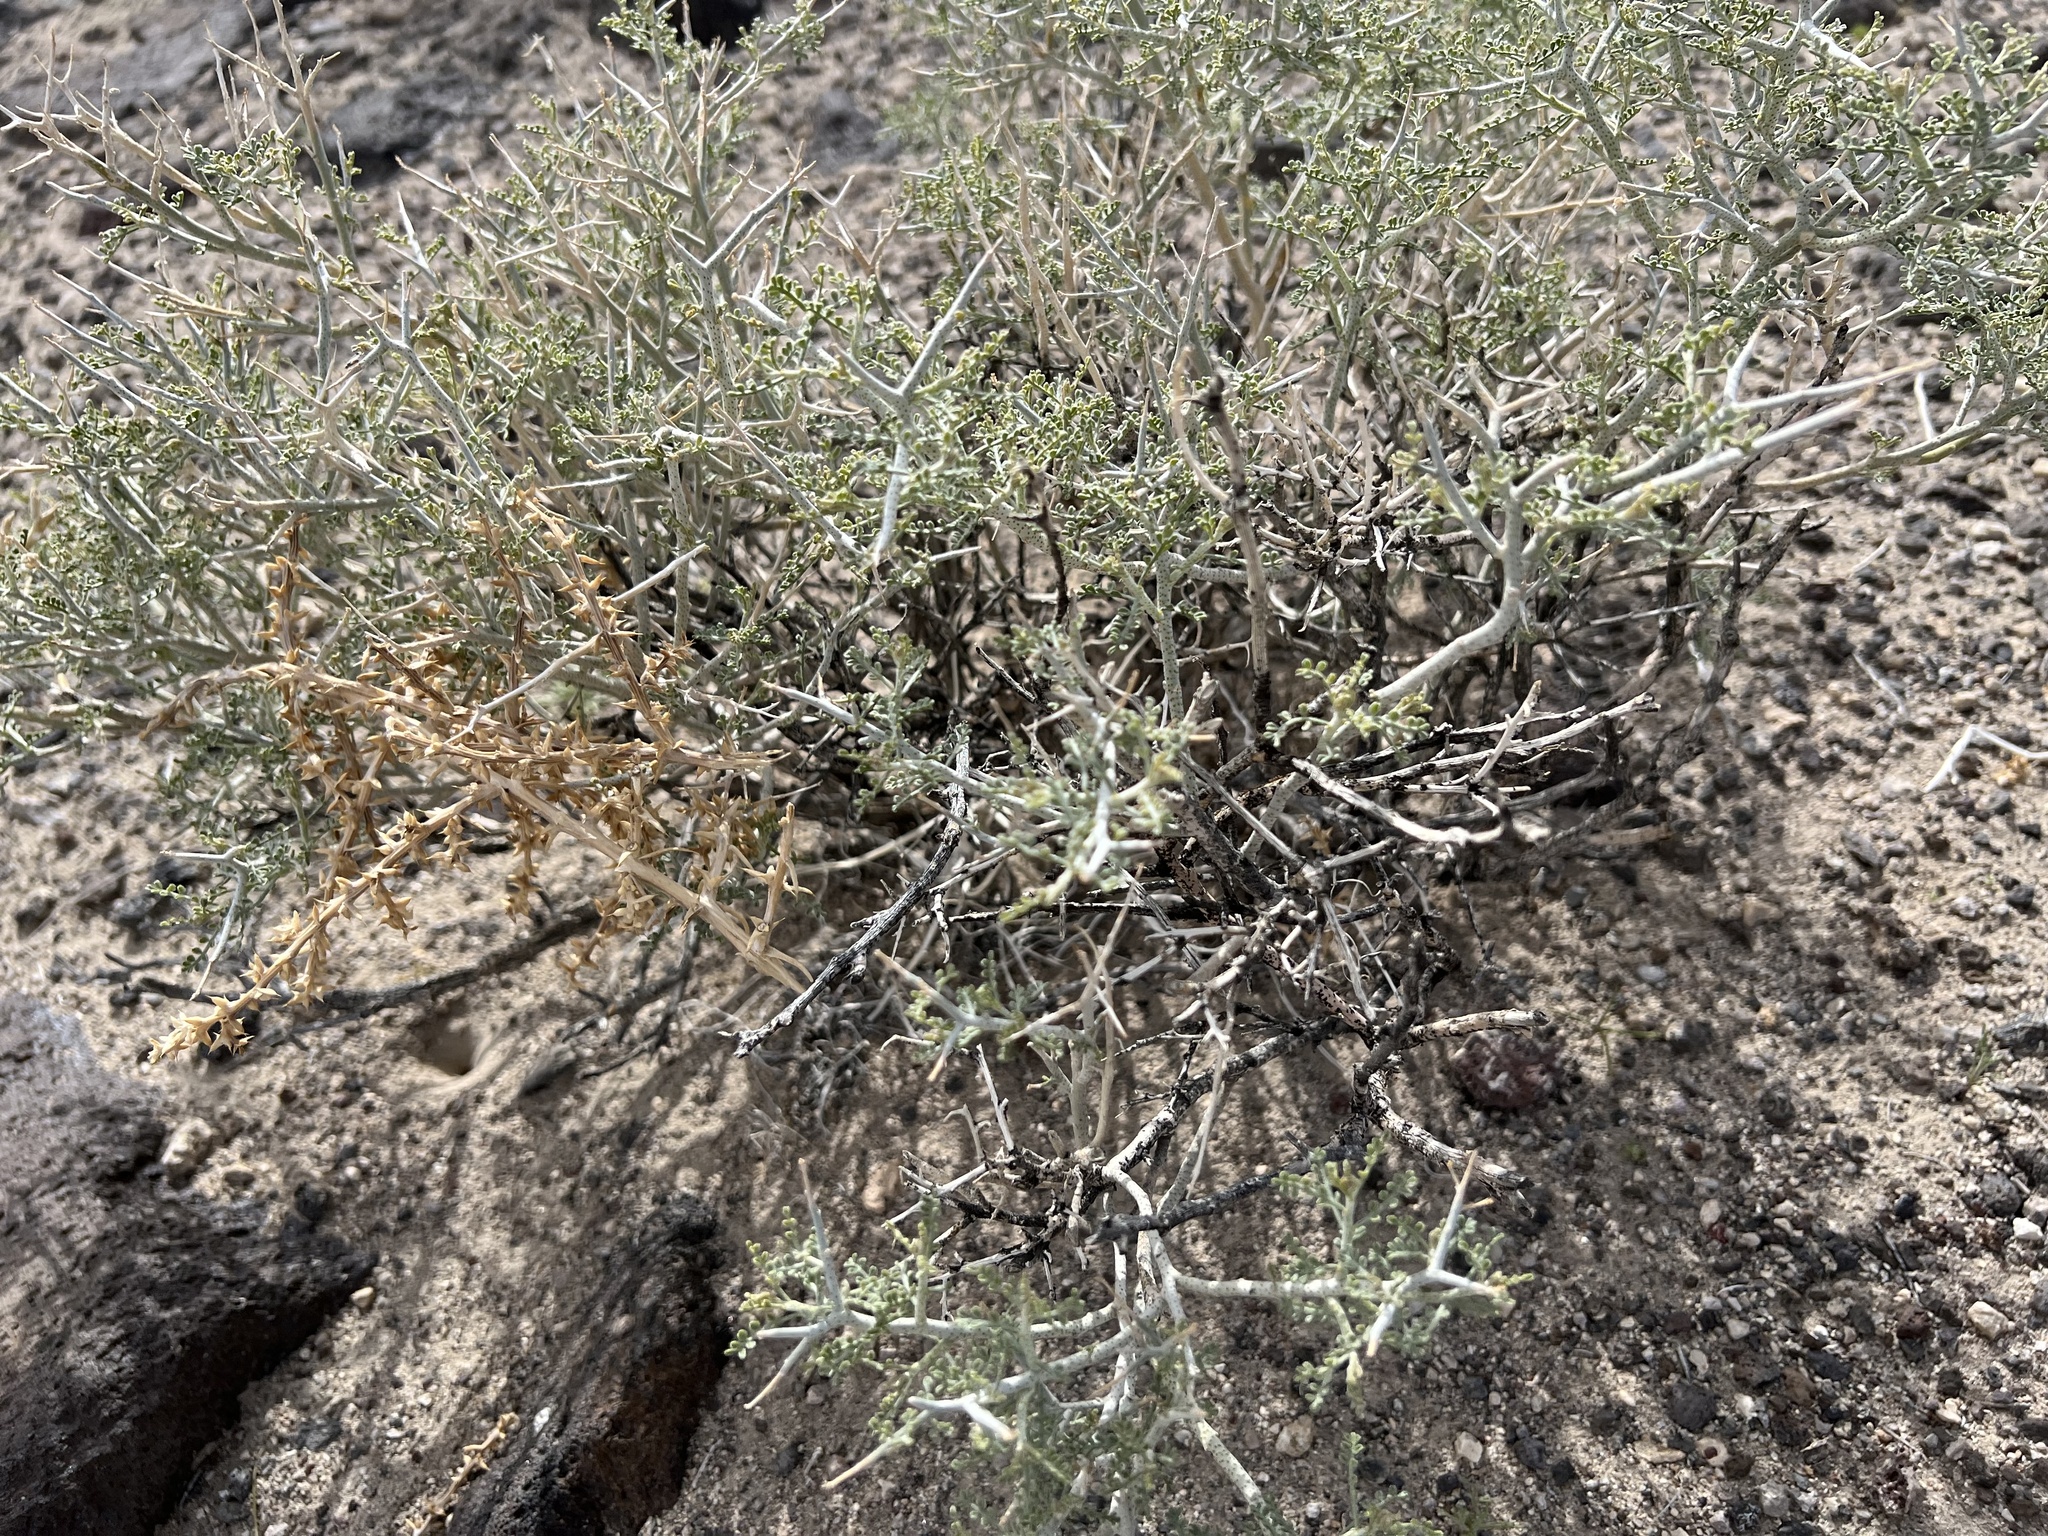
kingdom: Plantae
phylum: Tracheophyta
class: Magnoliopsida
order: Fabales
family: Fabaceae
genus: Psorothamnus
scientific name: Psorothamnus polydenius
